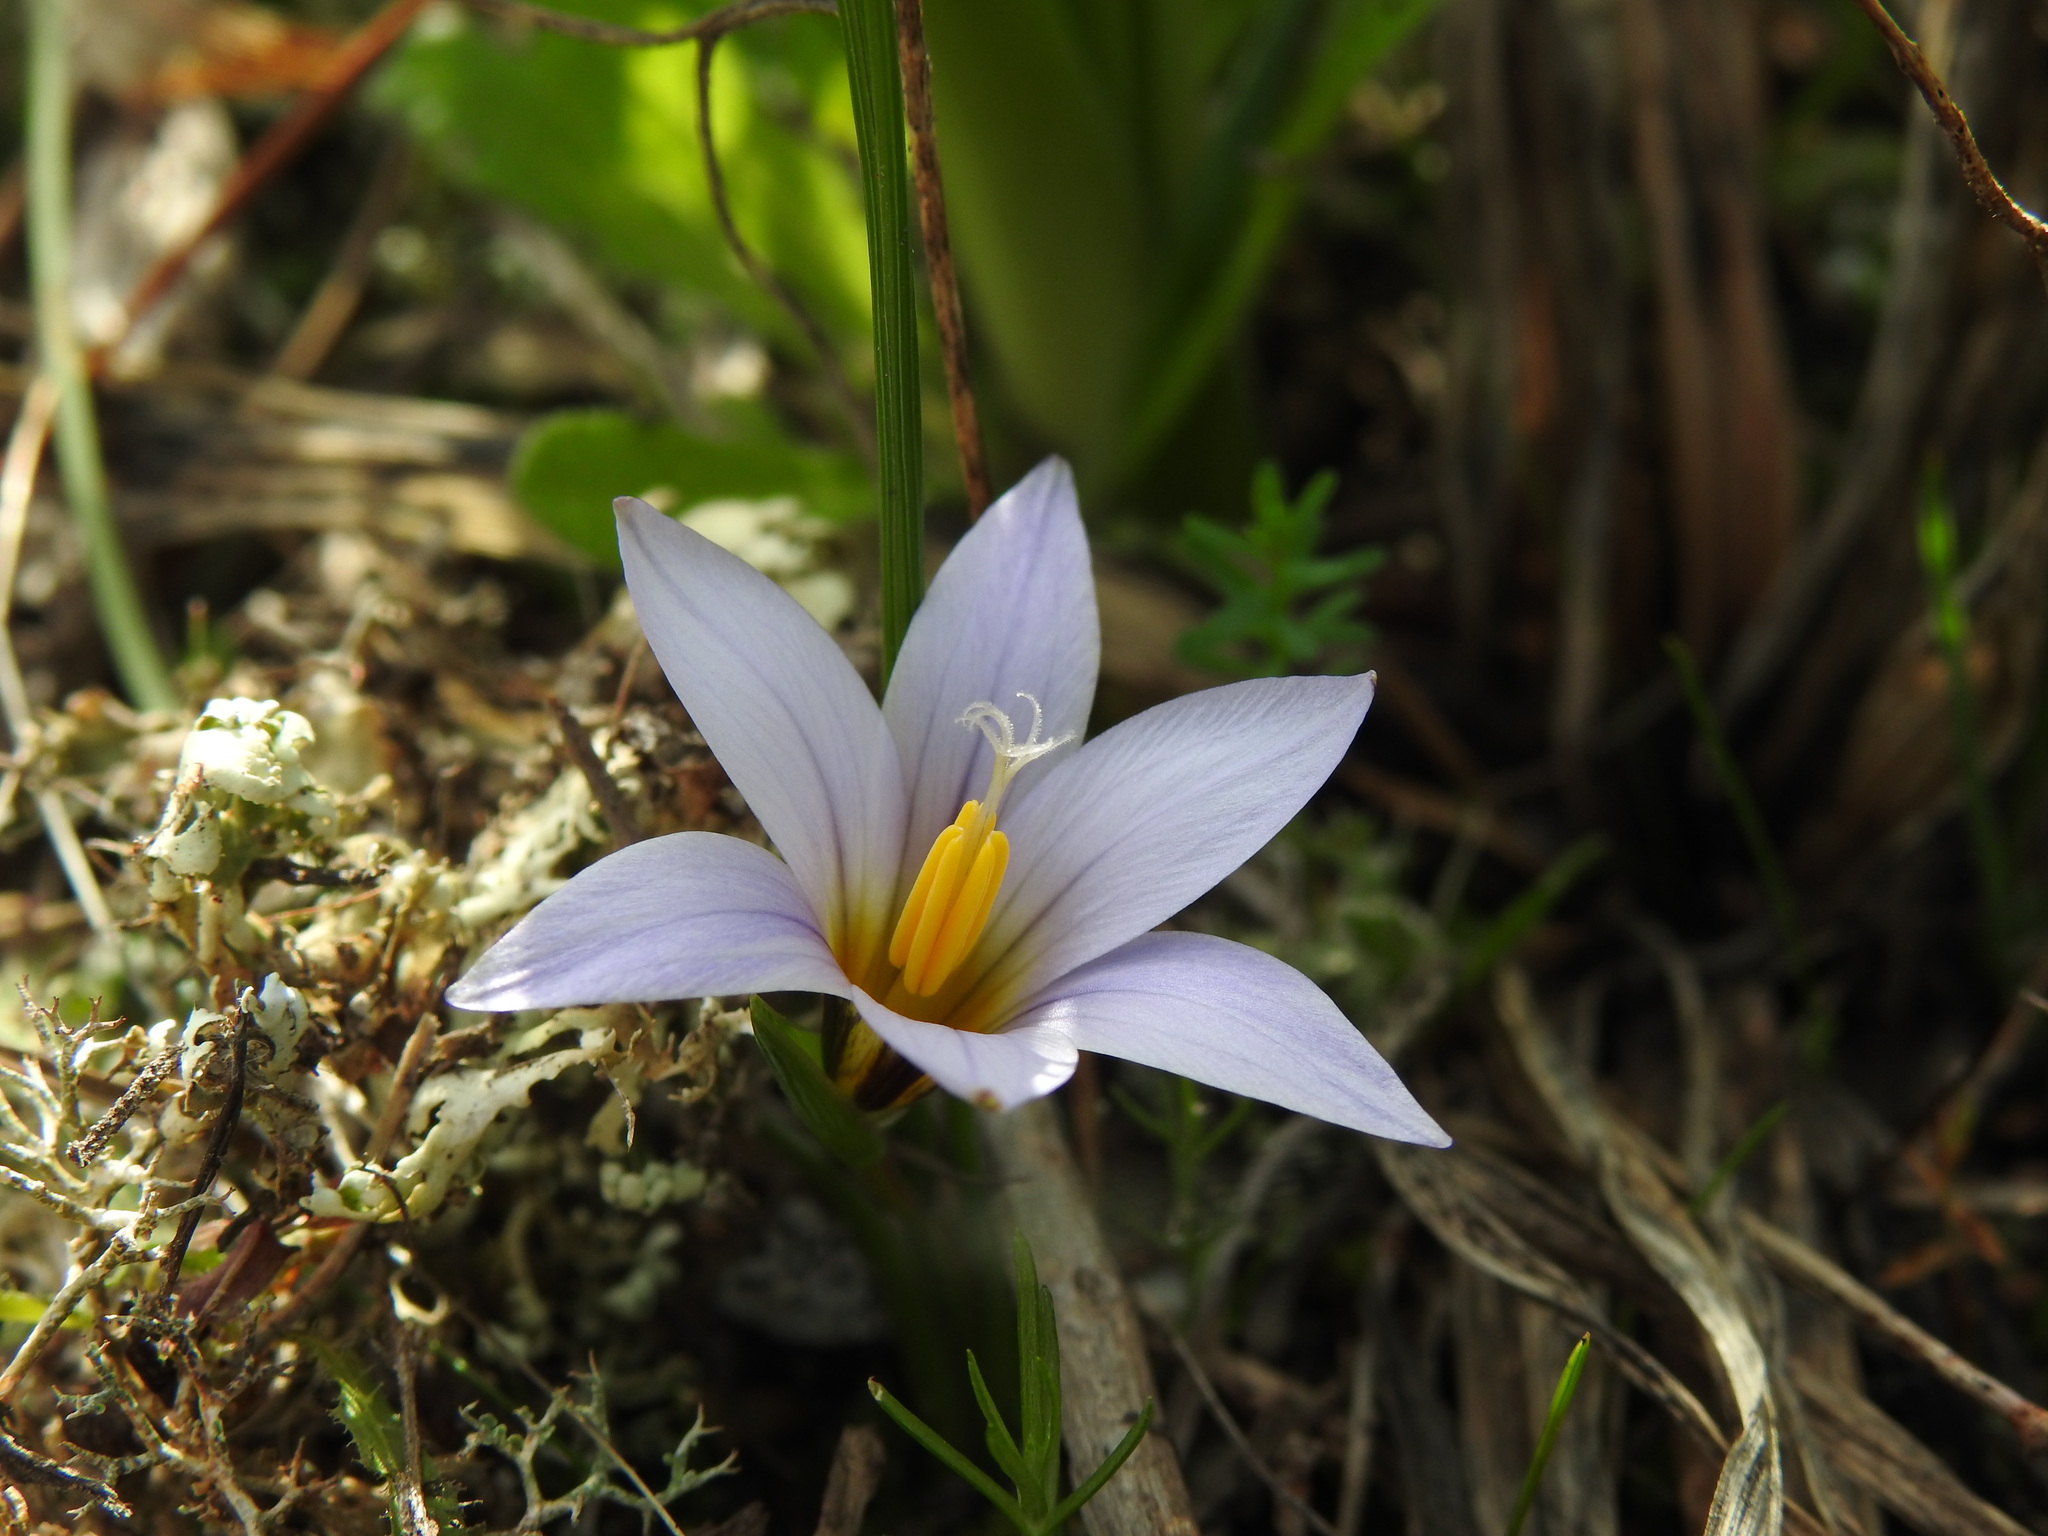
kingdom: Plantae
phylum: Tracheophyta
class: Liliopsida
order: Asparagales
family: Iridaceae
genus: Romulea
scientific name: Romulea bulbocodium
